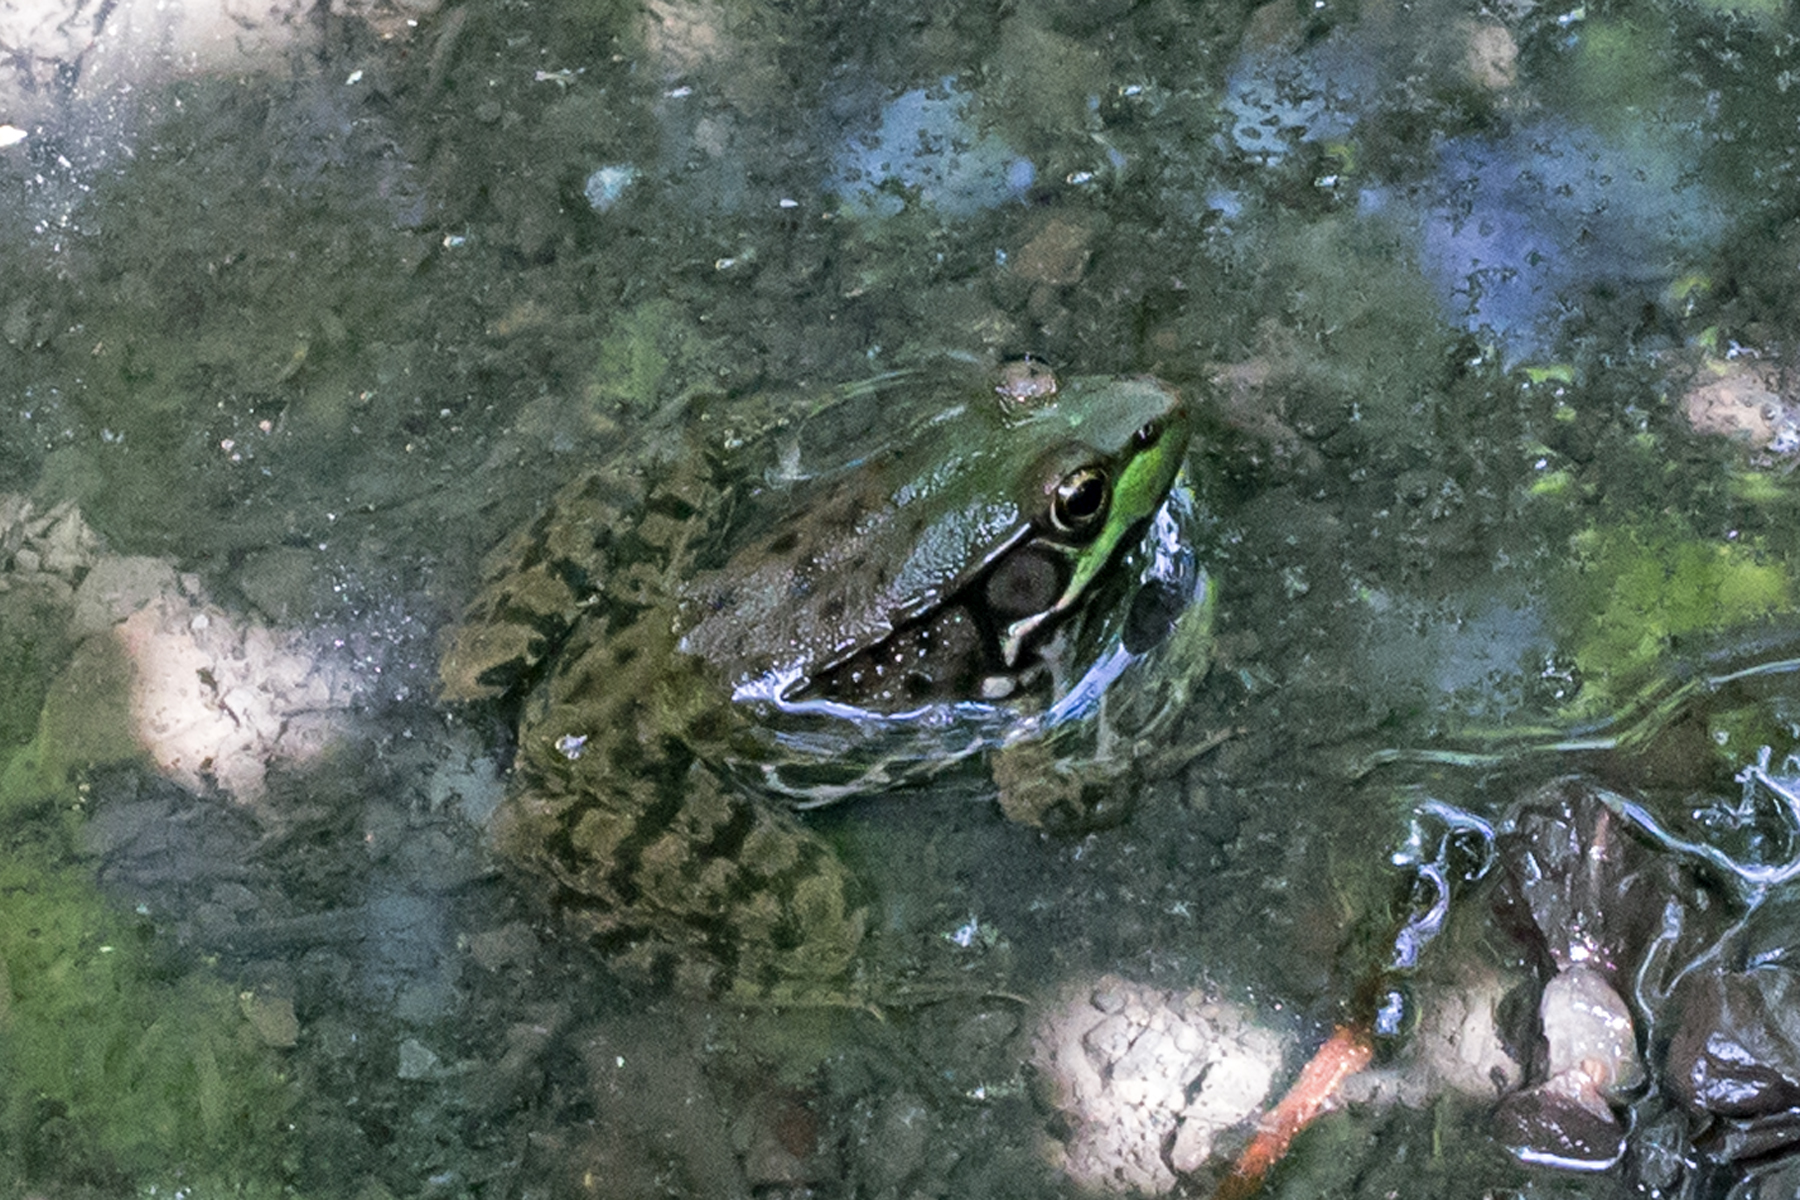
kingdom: Animalia
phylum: Chordata
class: Amphibia
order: Anura
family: Ranidae
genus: Lithobates
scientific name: Lithobates clamitans
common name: Green frog
